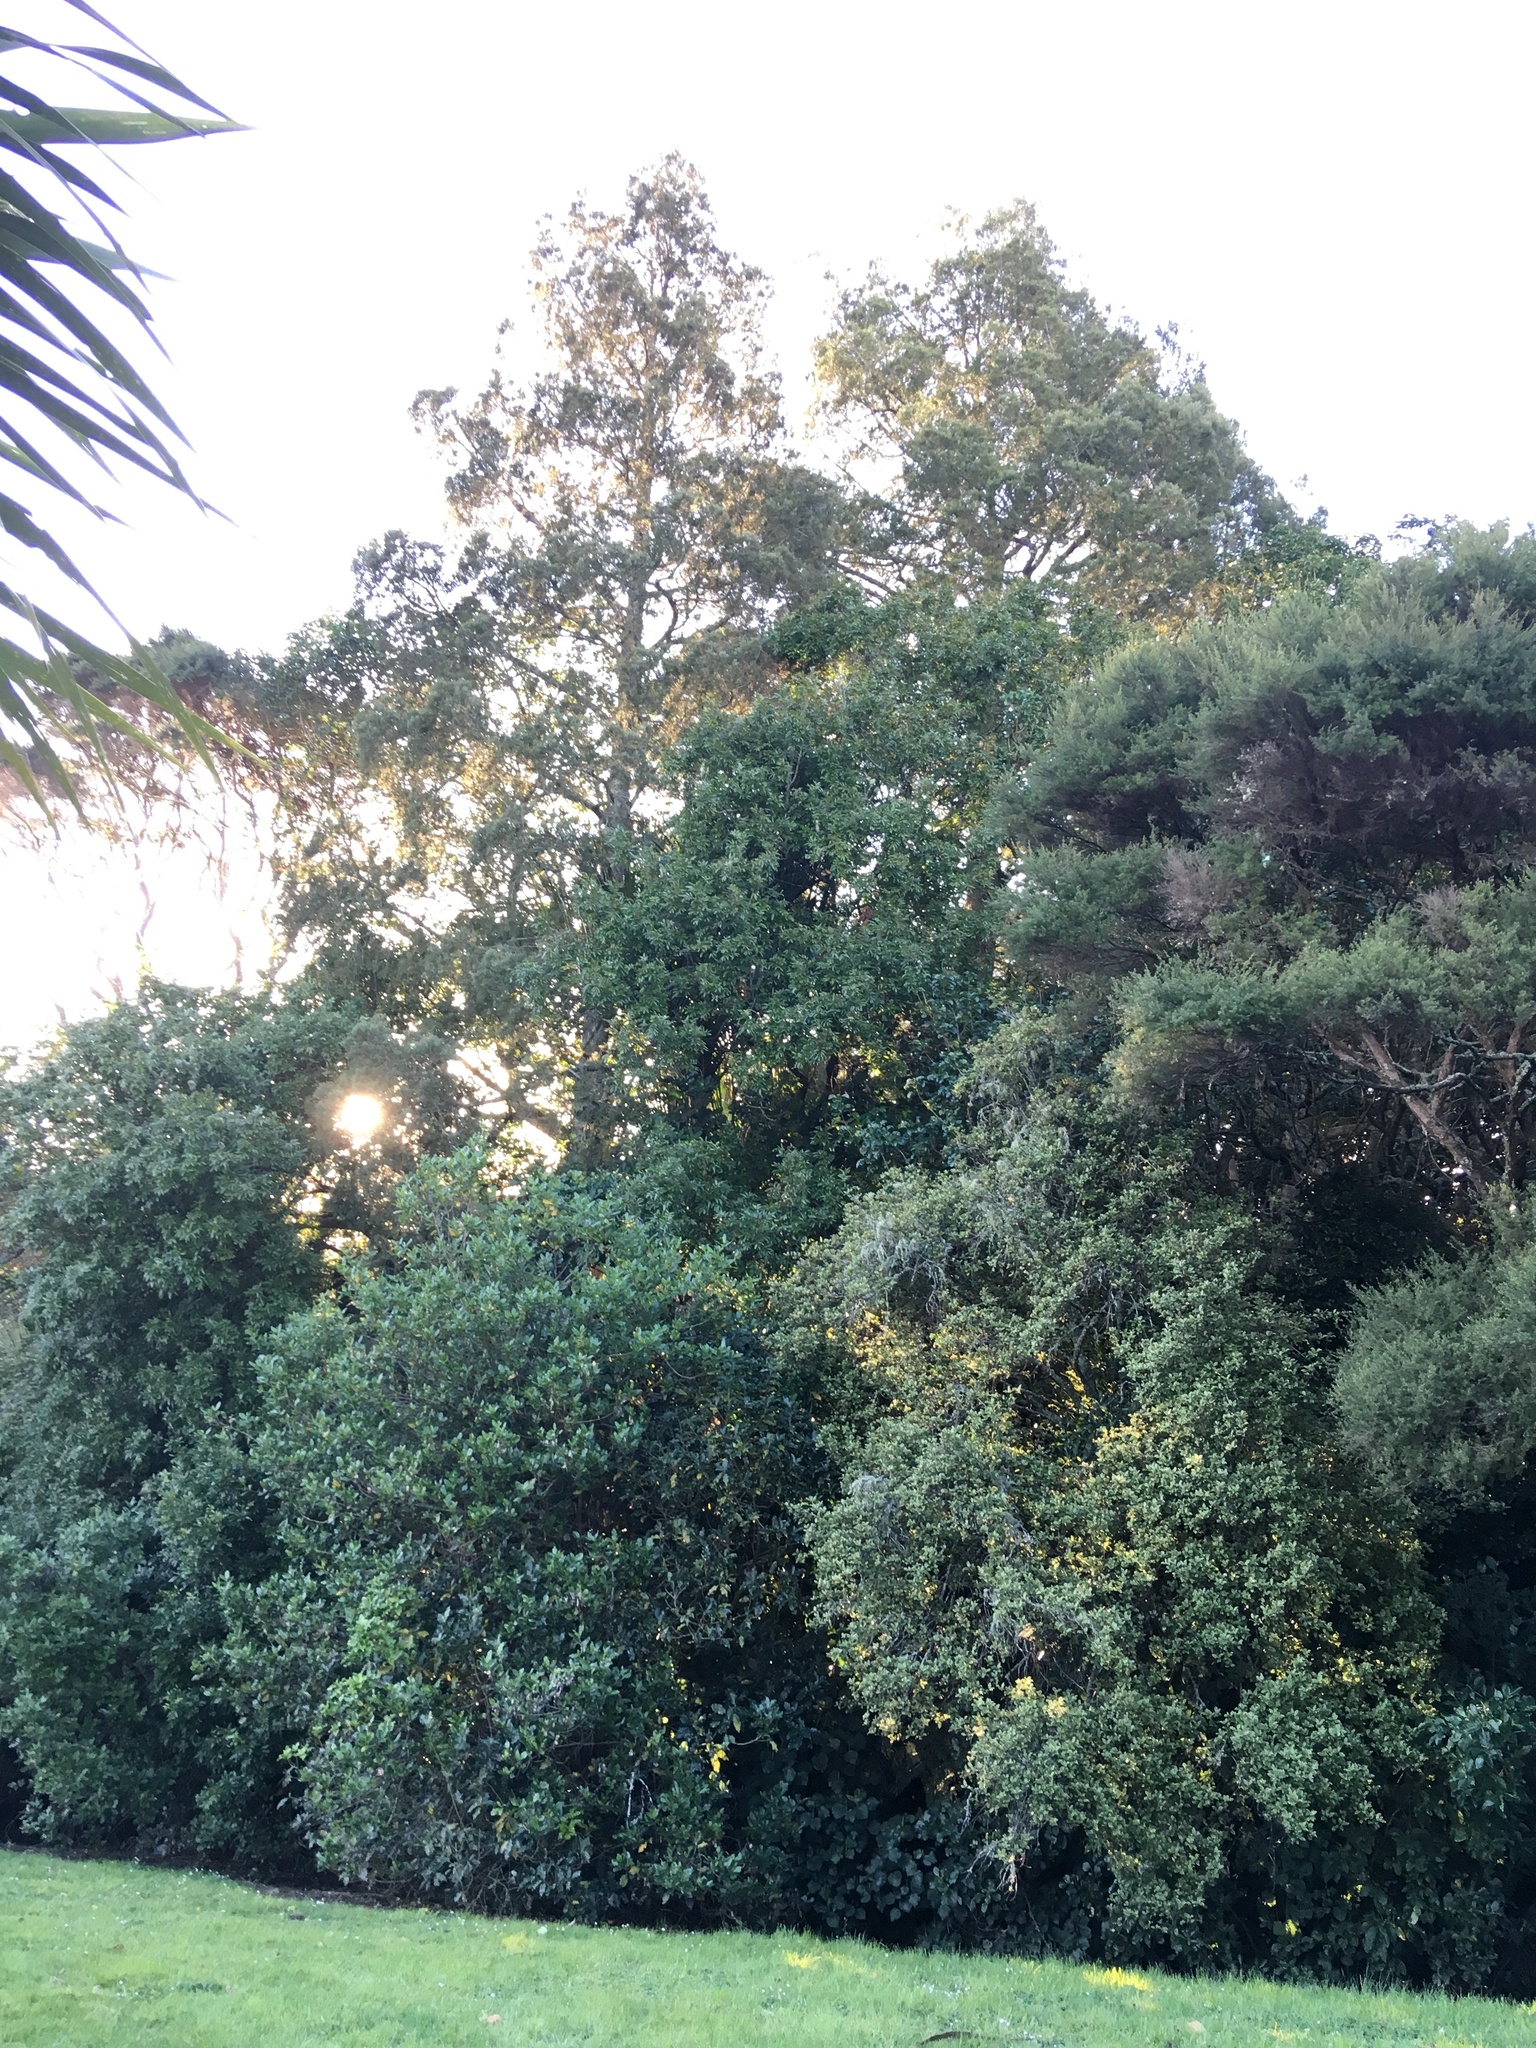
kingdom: Plantae
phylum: Tracheophyta
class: Pinopsida
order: Pinales
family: Podocarpaceae
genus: Dacrycarpus
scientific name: Dacrycarpus dacrydioides
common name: White pine
